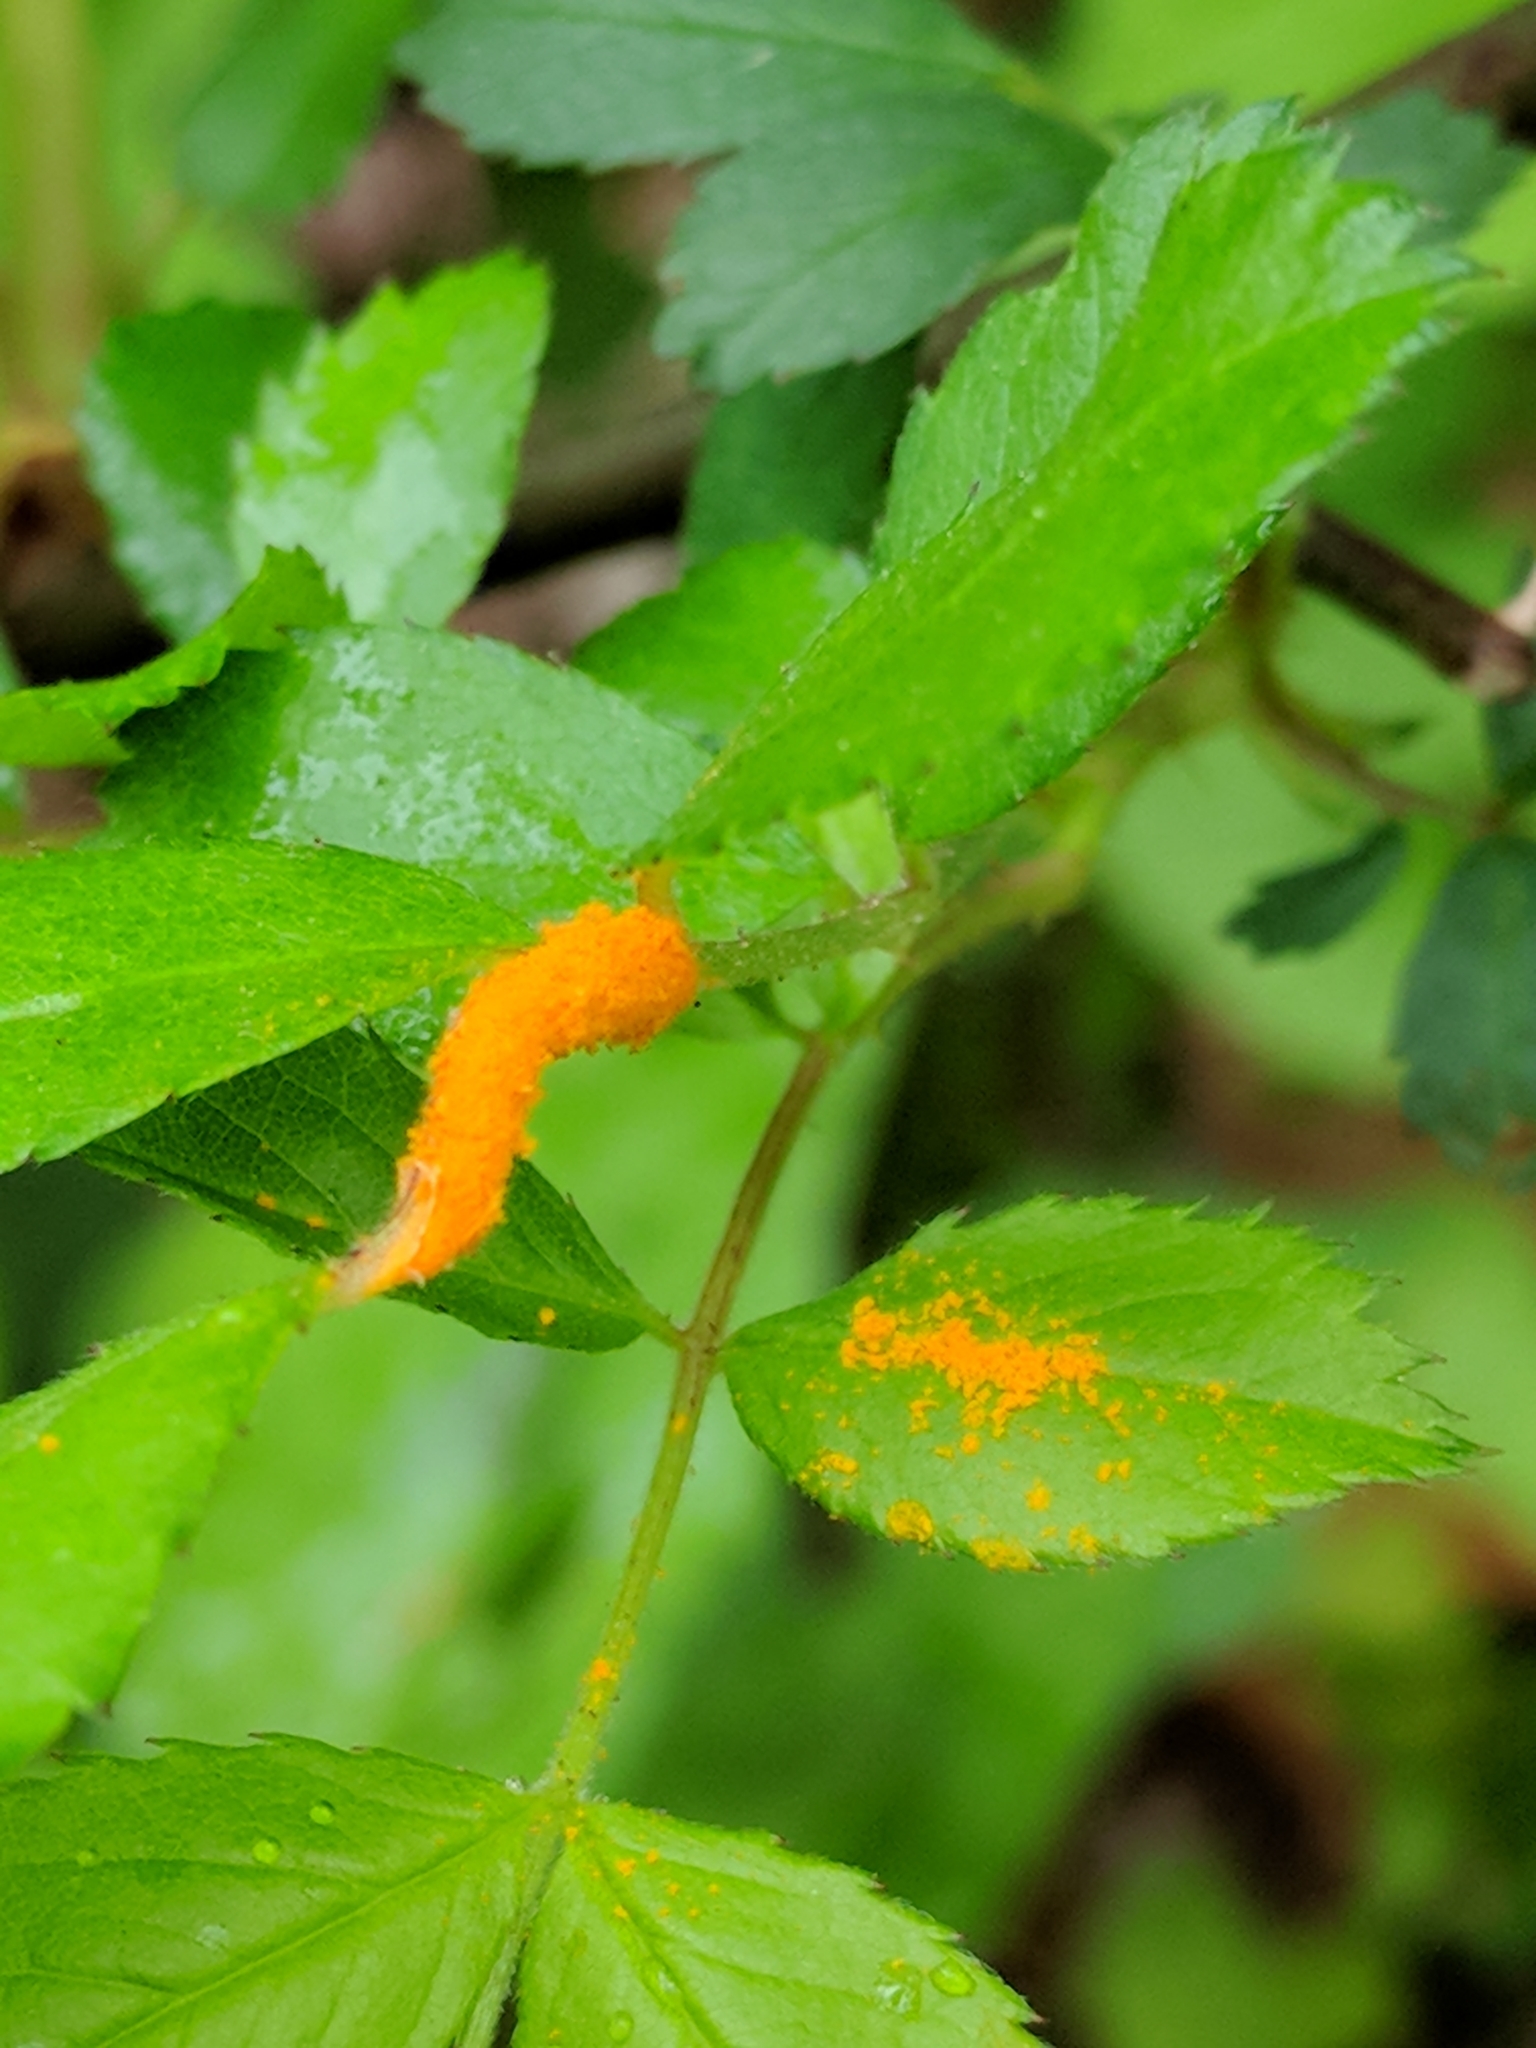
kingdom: Fungi
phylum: Basidiomycota
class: Pucciniomycetes
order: Pucciniales
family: Phragmidiaceae
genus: Phragmidium
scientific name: Phragmidium rosae-multiflorae
